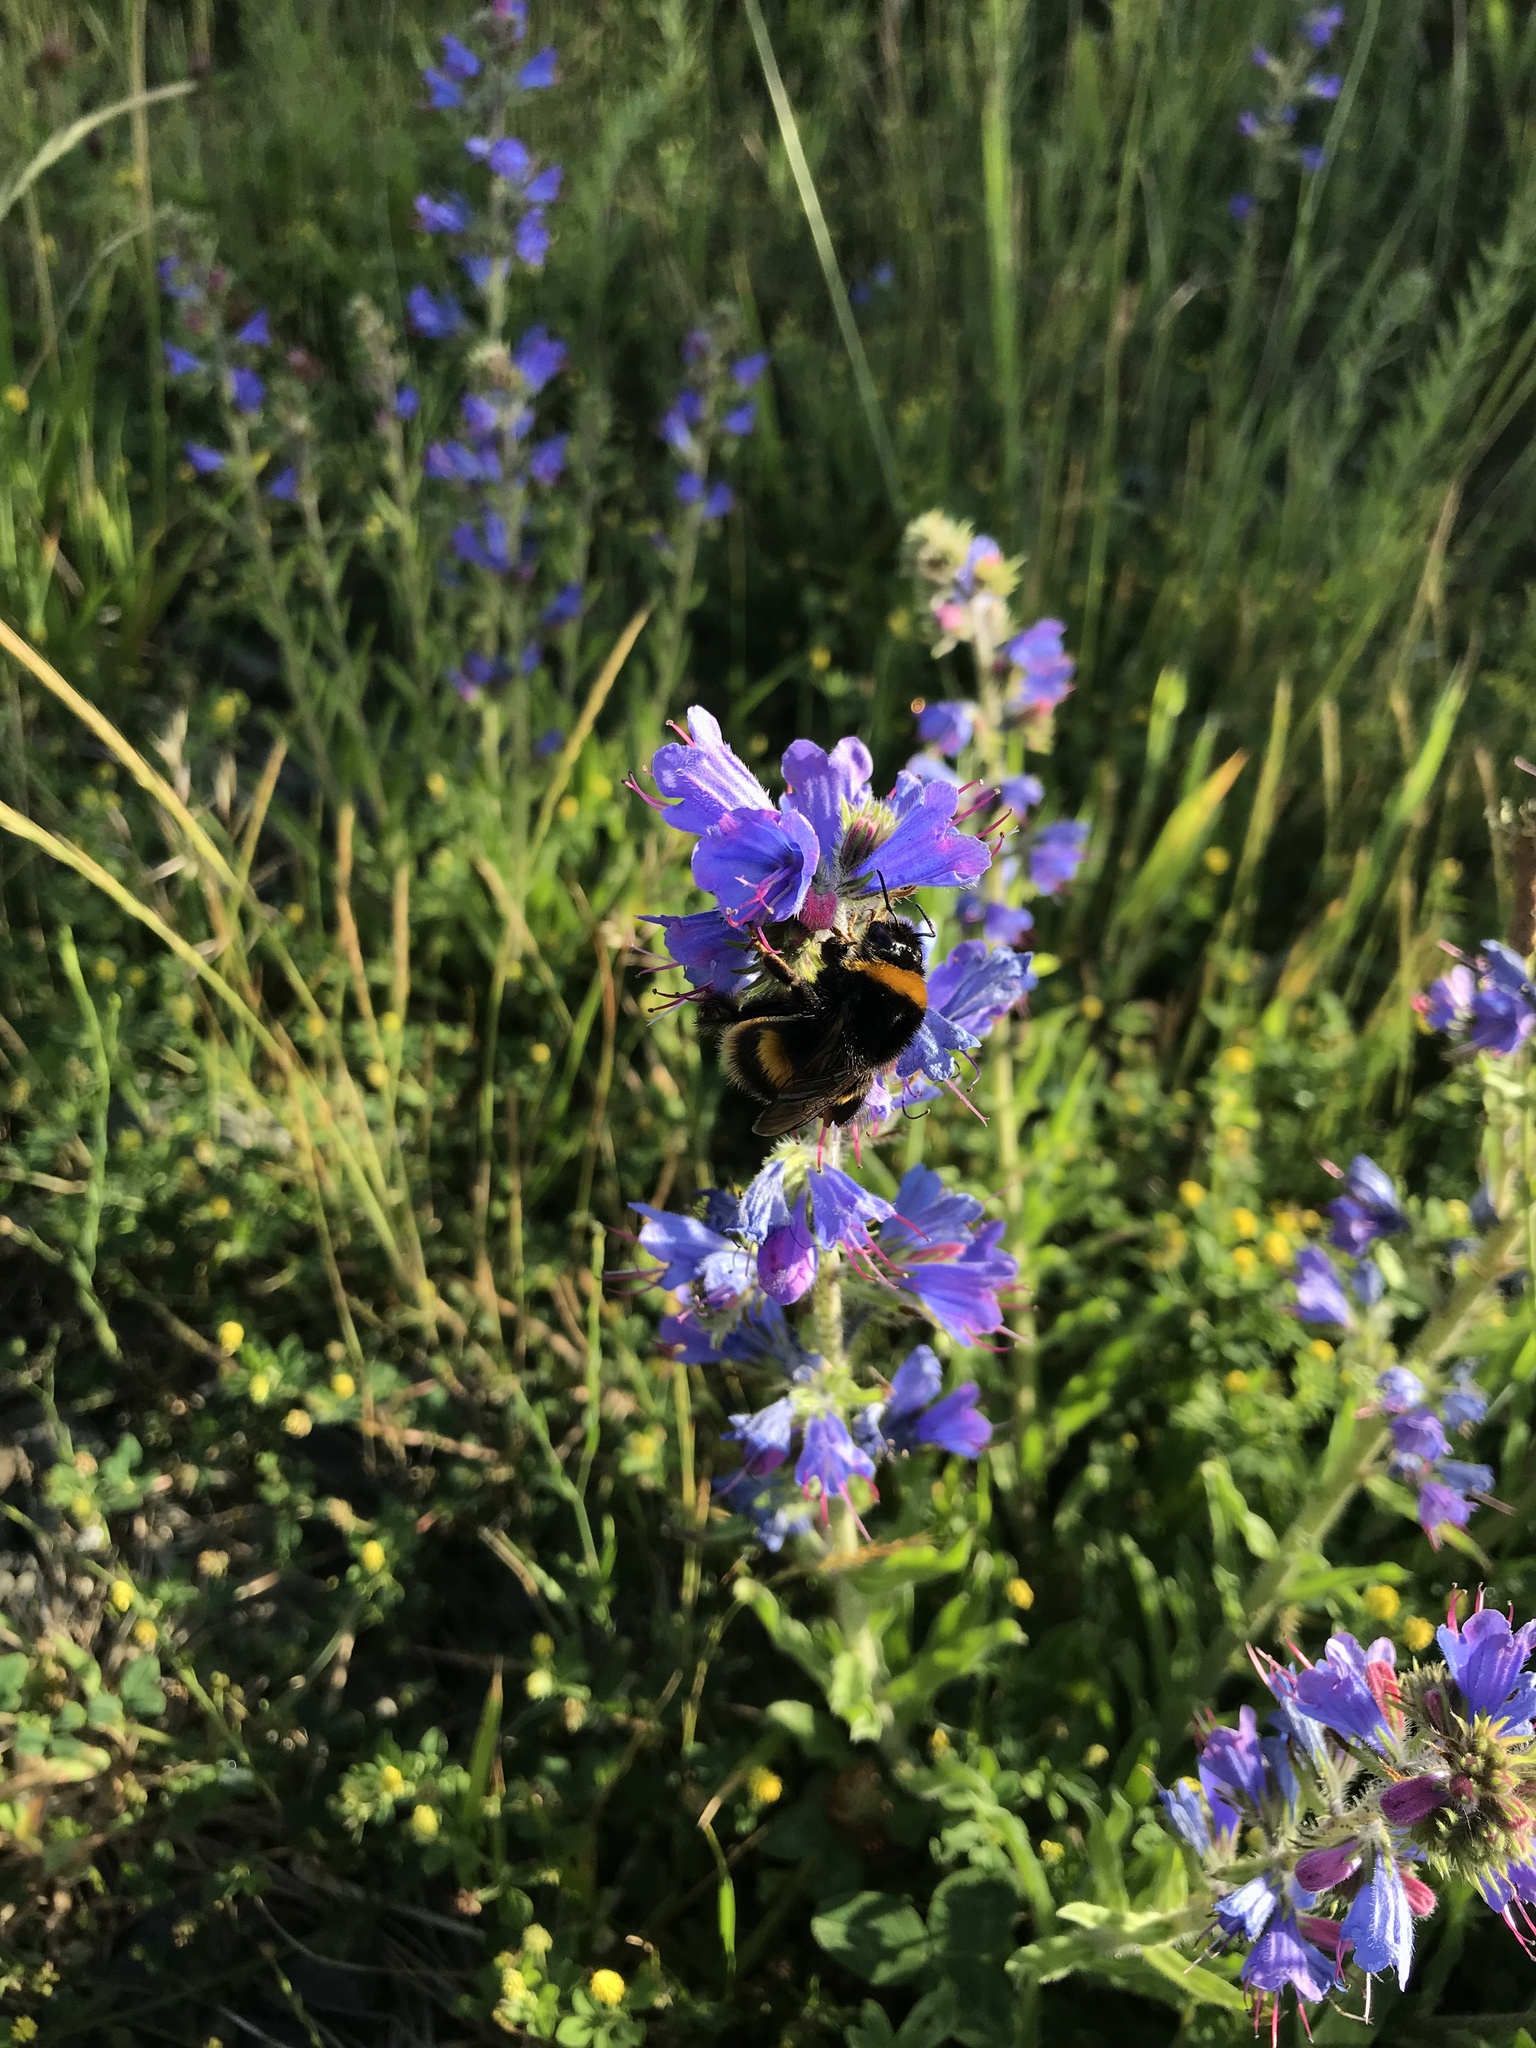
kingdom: Animalia
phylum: Arthropoda
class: Insecta
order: Hymenoptera
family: Apidae
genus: Bombus
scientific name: Bombus terrestris
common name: Buff-tailed bumblebee
